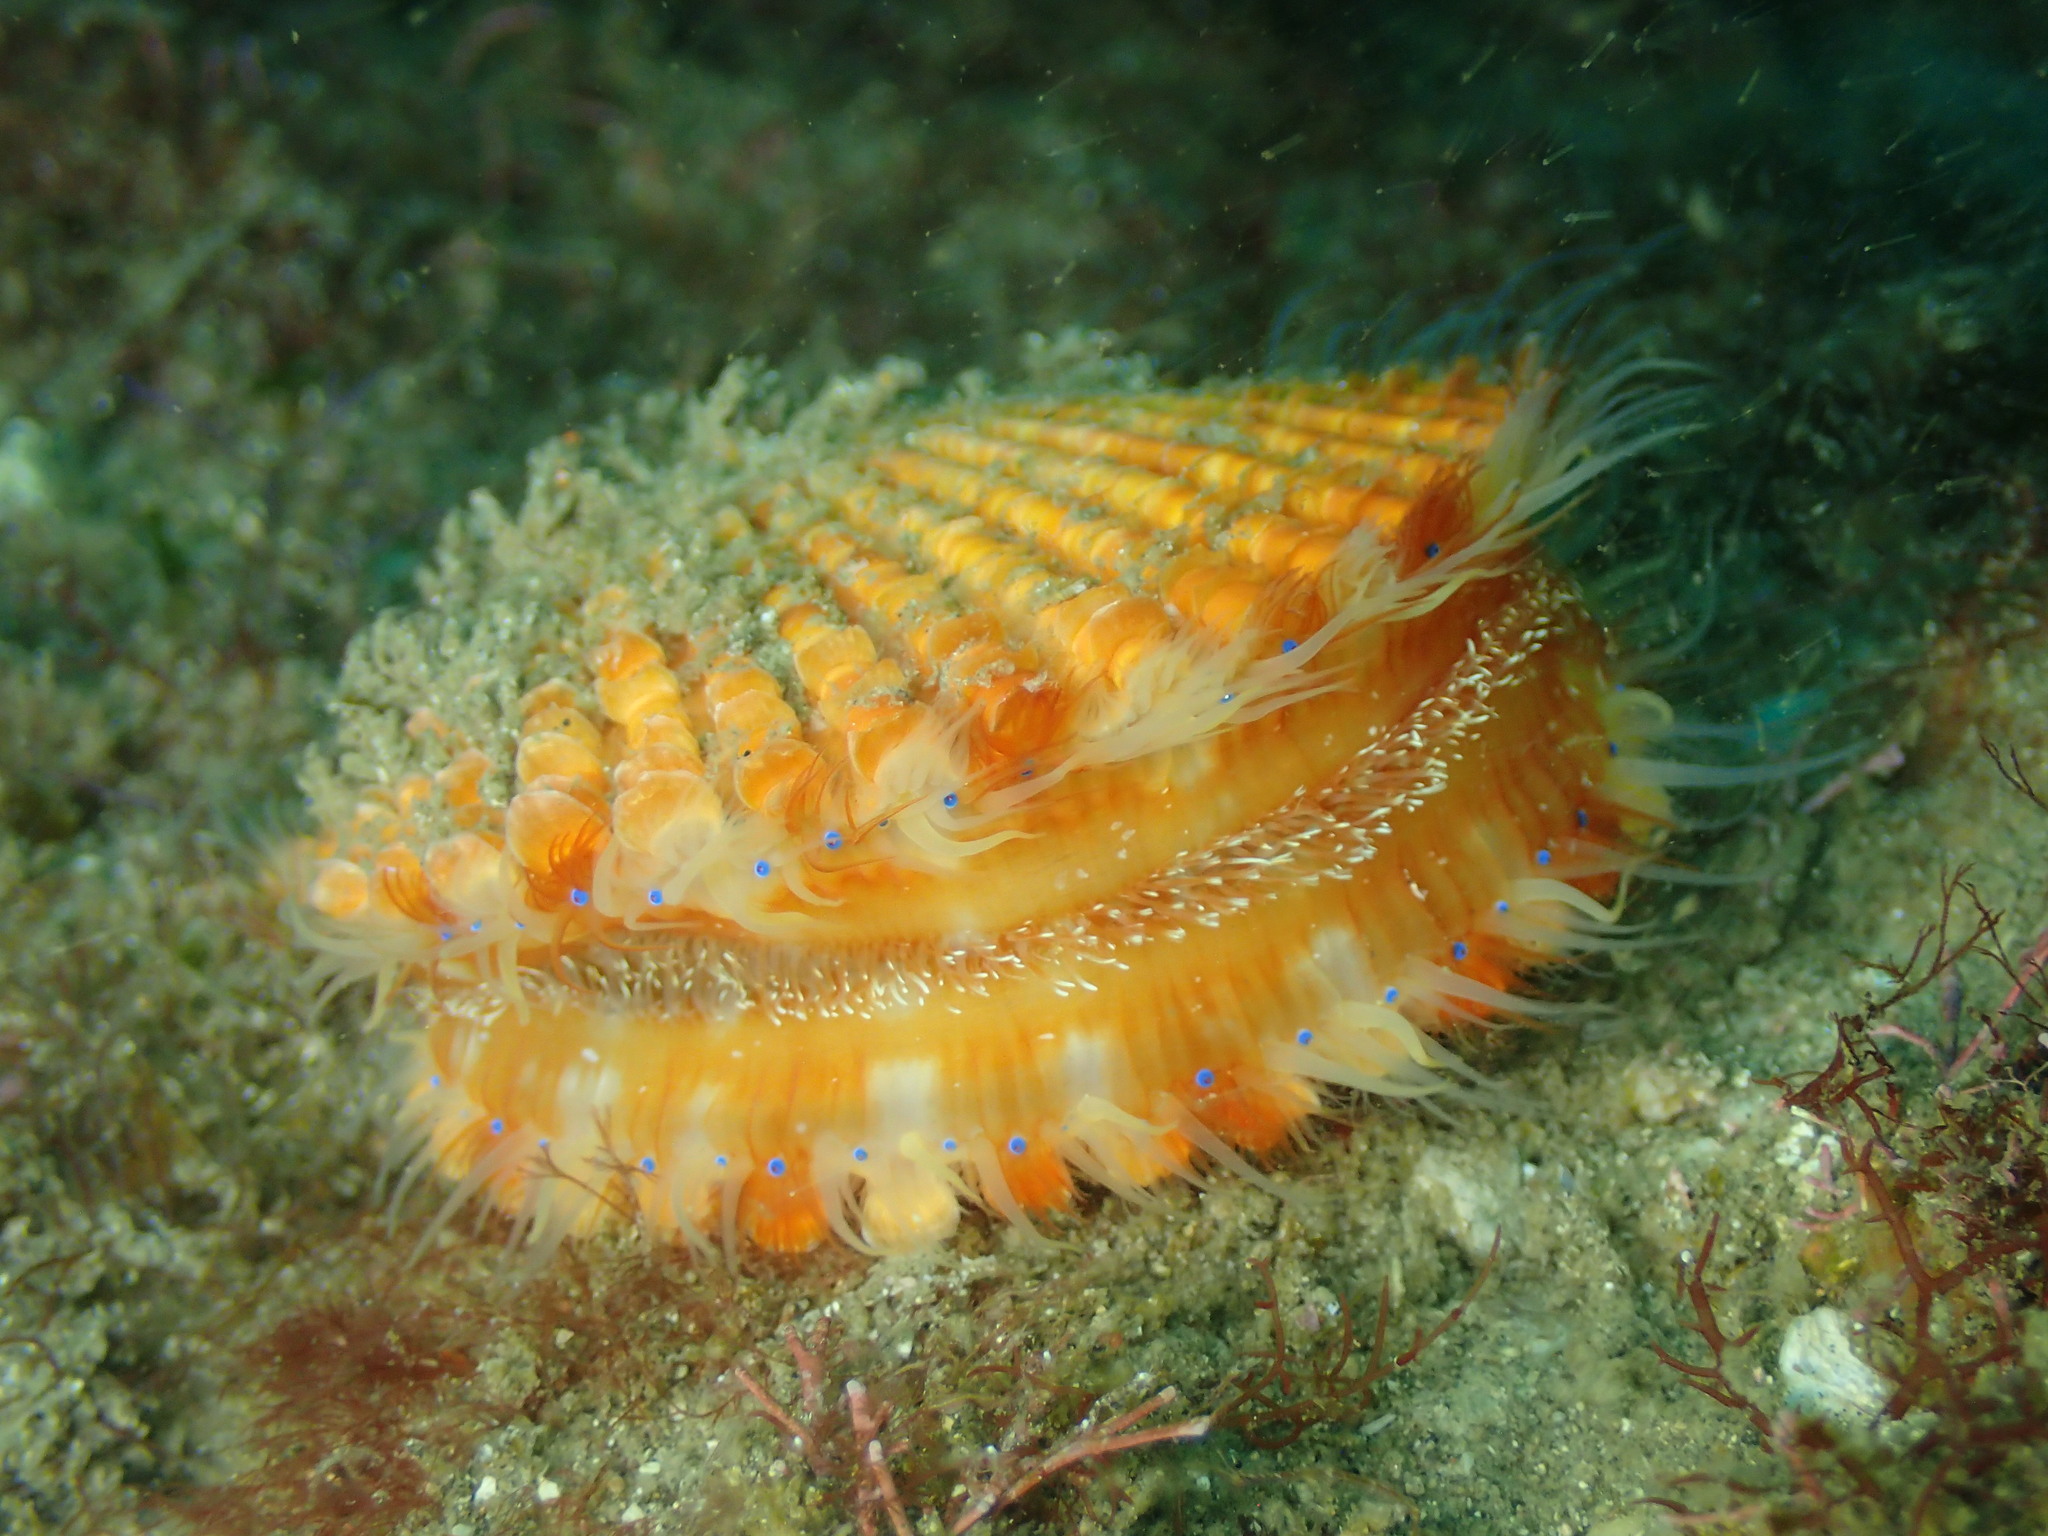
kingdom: Animalia
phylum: Mollusca
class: Bivalvia
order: Pectinida
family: Pectinidae
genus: Mimachlamys
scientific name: Mimachlamys crassicostata
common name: Noble scallop
